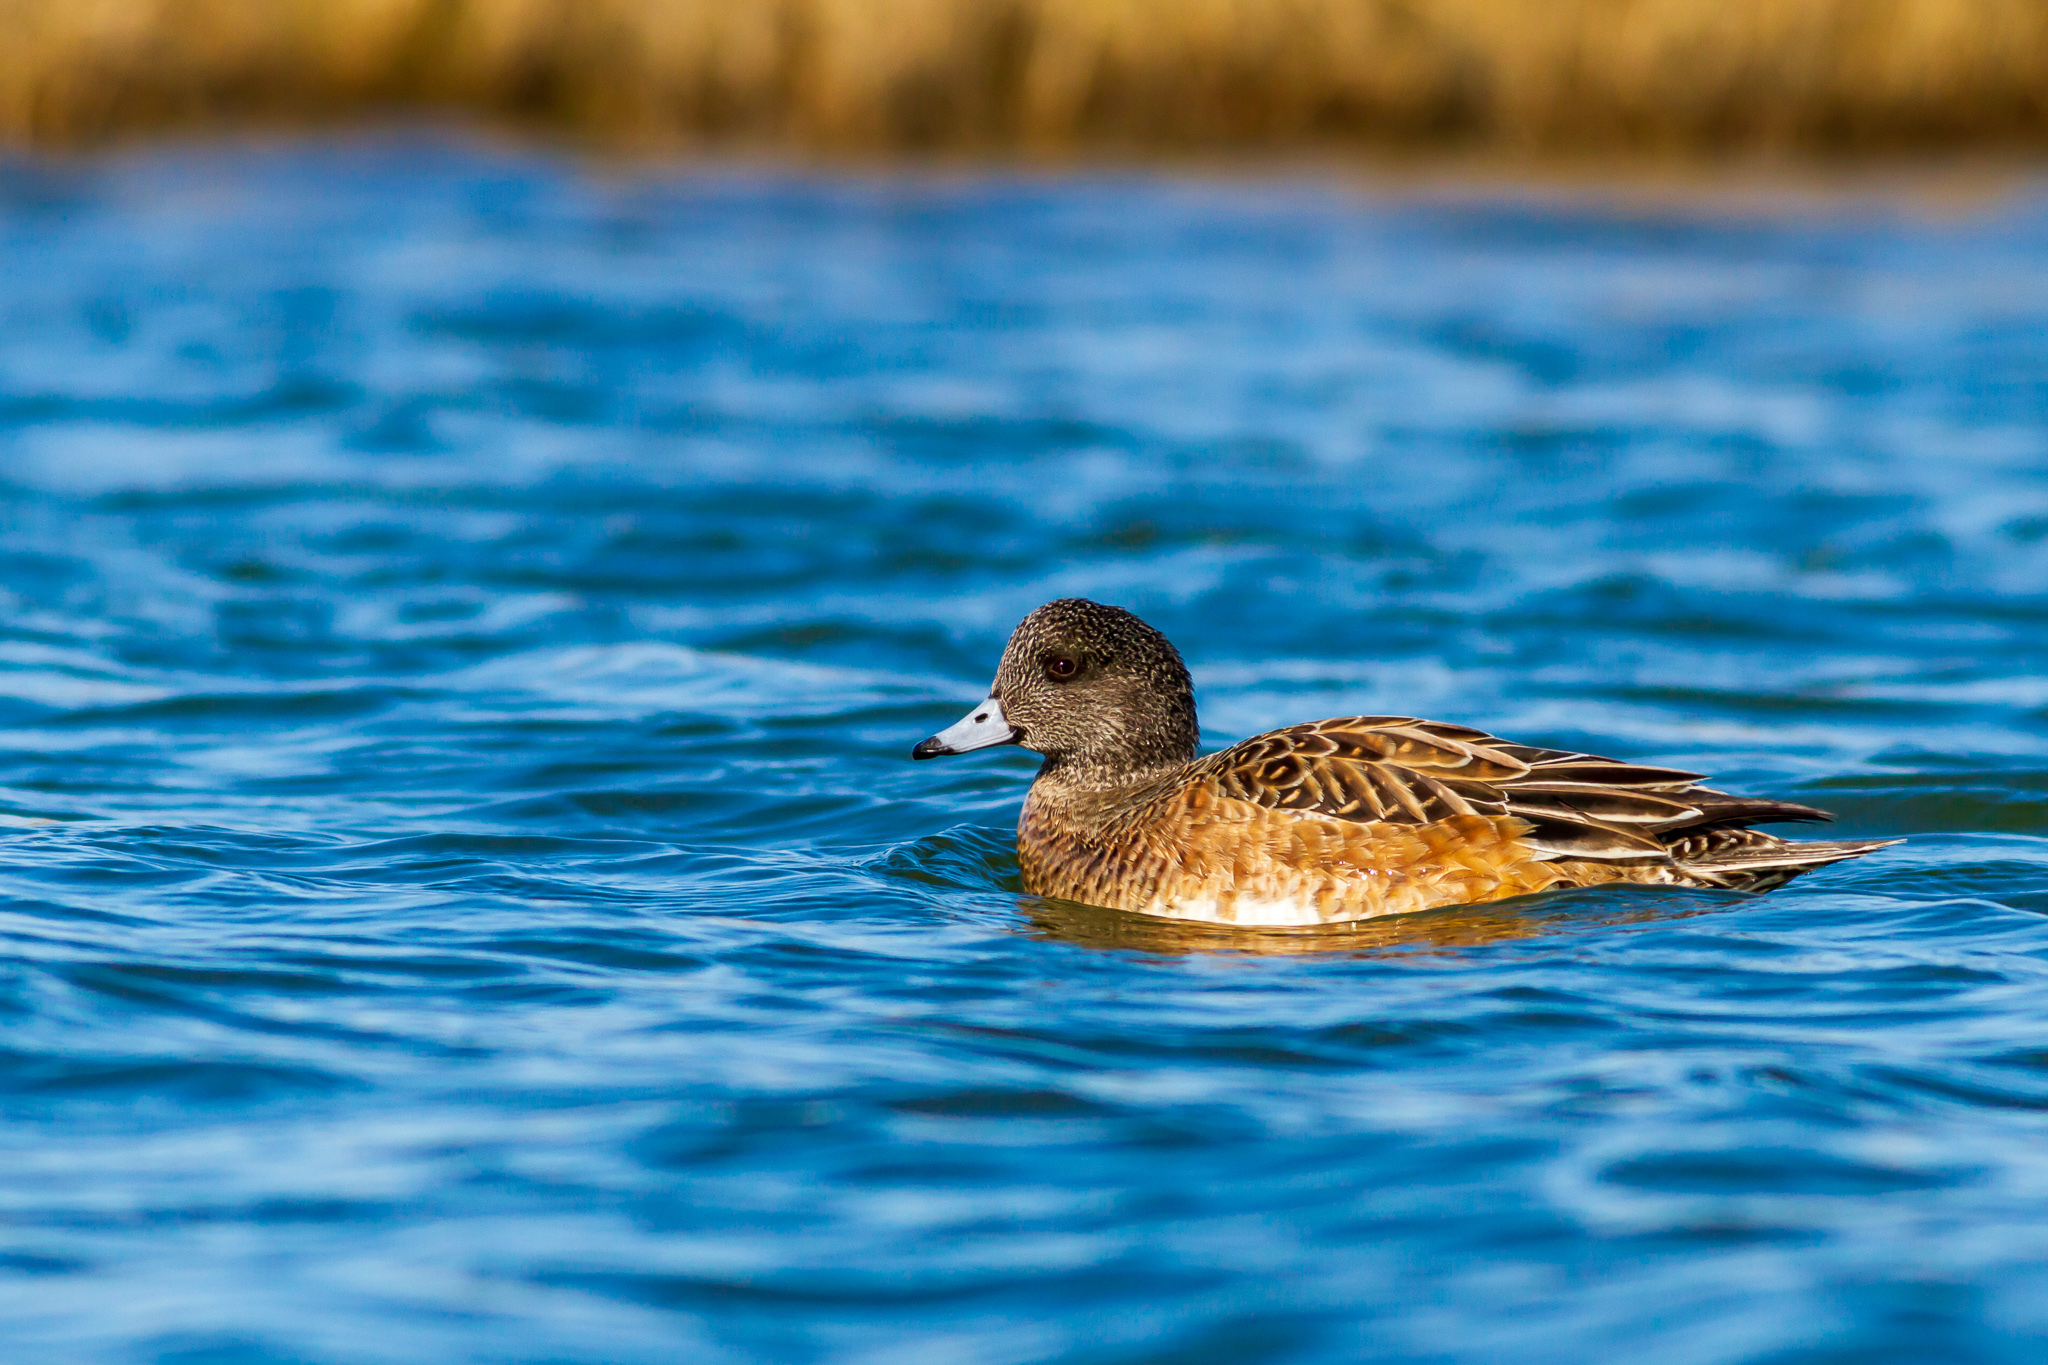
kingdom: Animalia
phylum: Chordata
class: Aves
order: Anseriformes
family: Anatidae
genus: Mareca
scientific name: Mareca americana
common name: American wigeon
